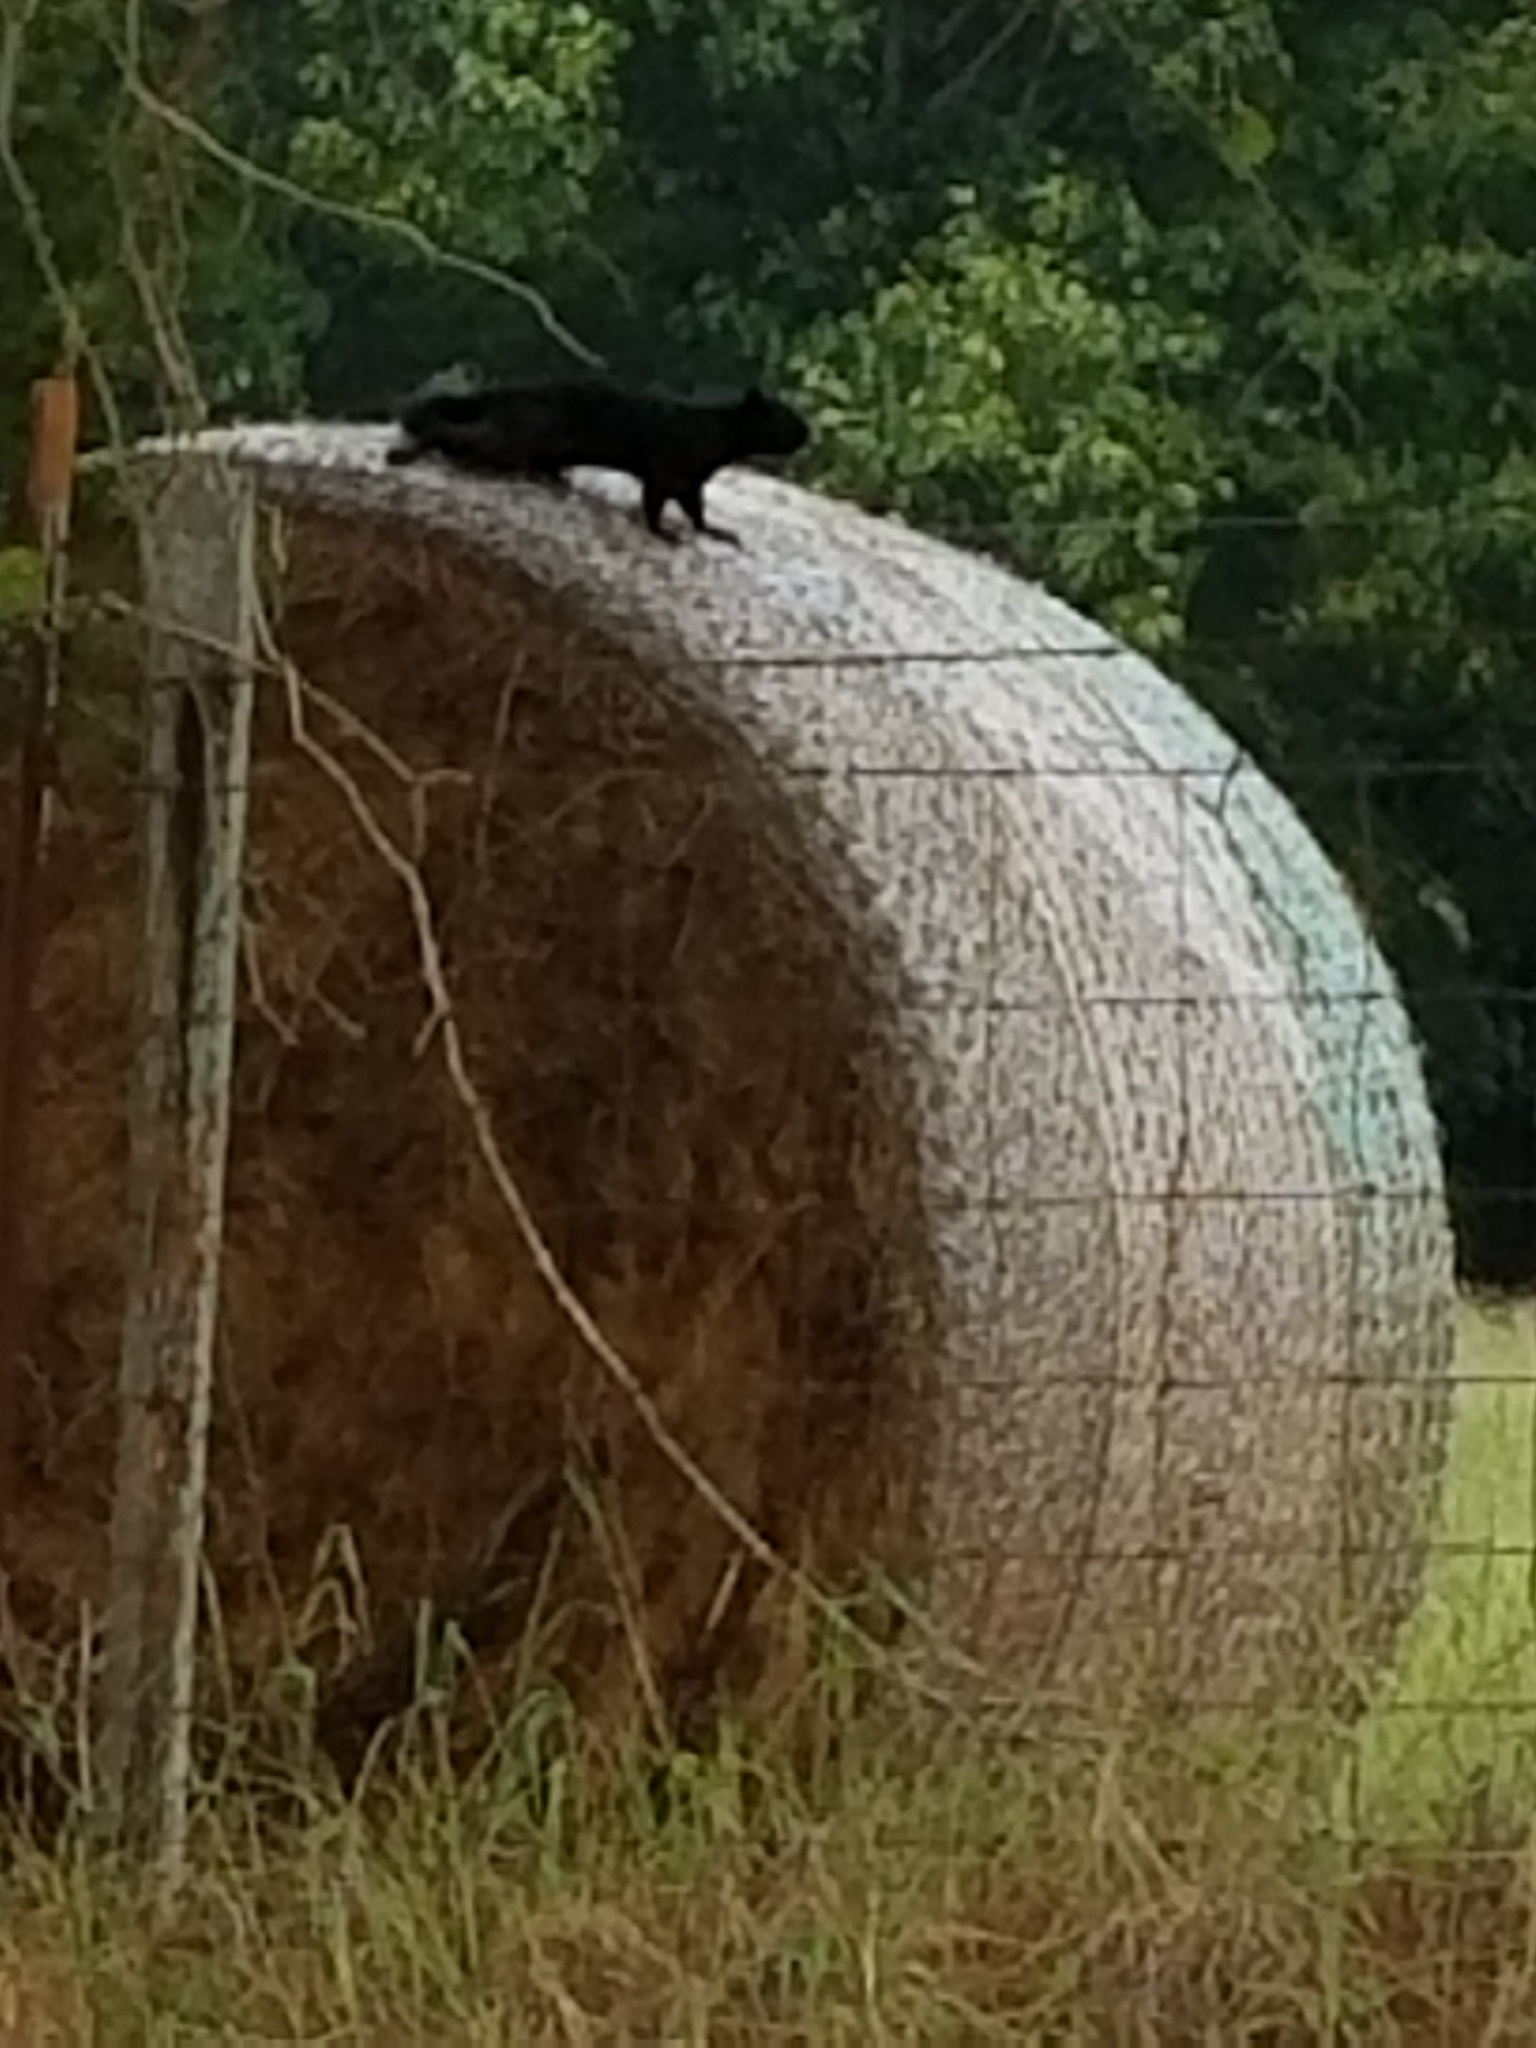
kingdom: Animalia
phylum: Chordata
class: Mammalia
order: Rodentia
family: Sciuridae
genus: Sciurus
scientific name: Sciurus niger
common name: Fox squirrel
